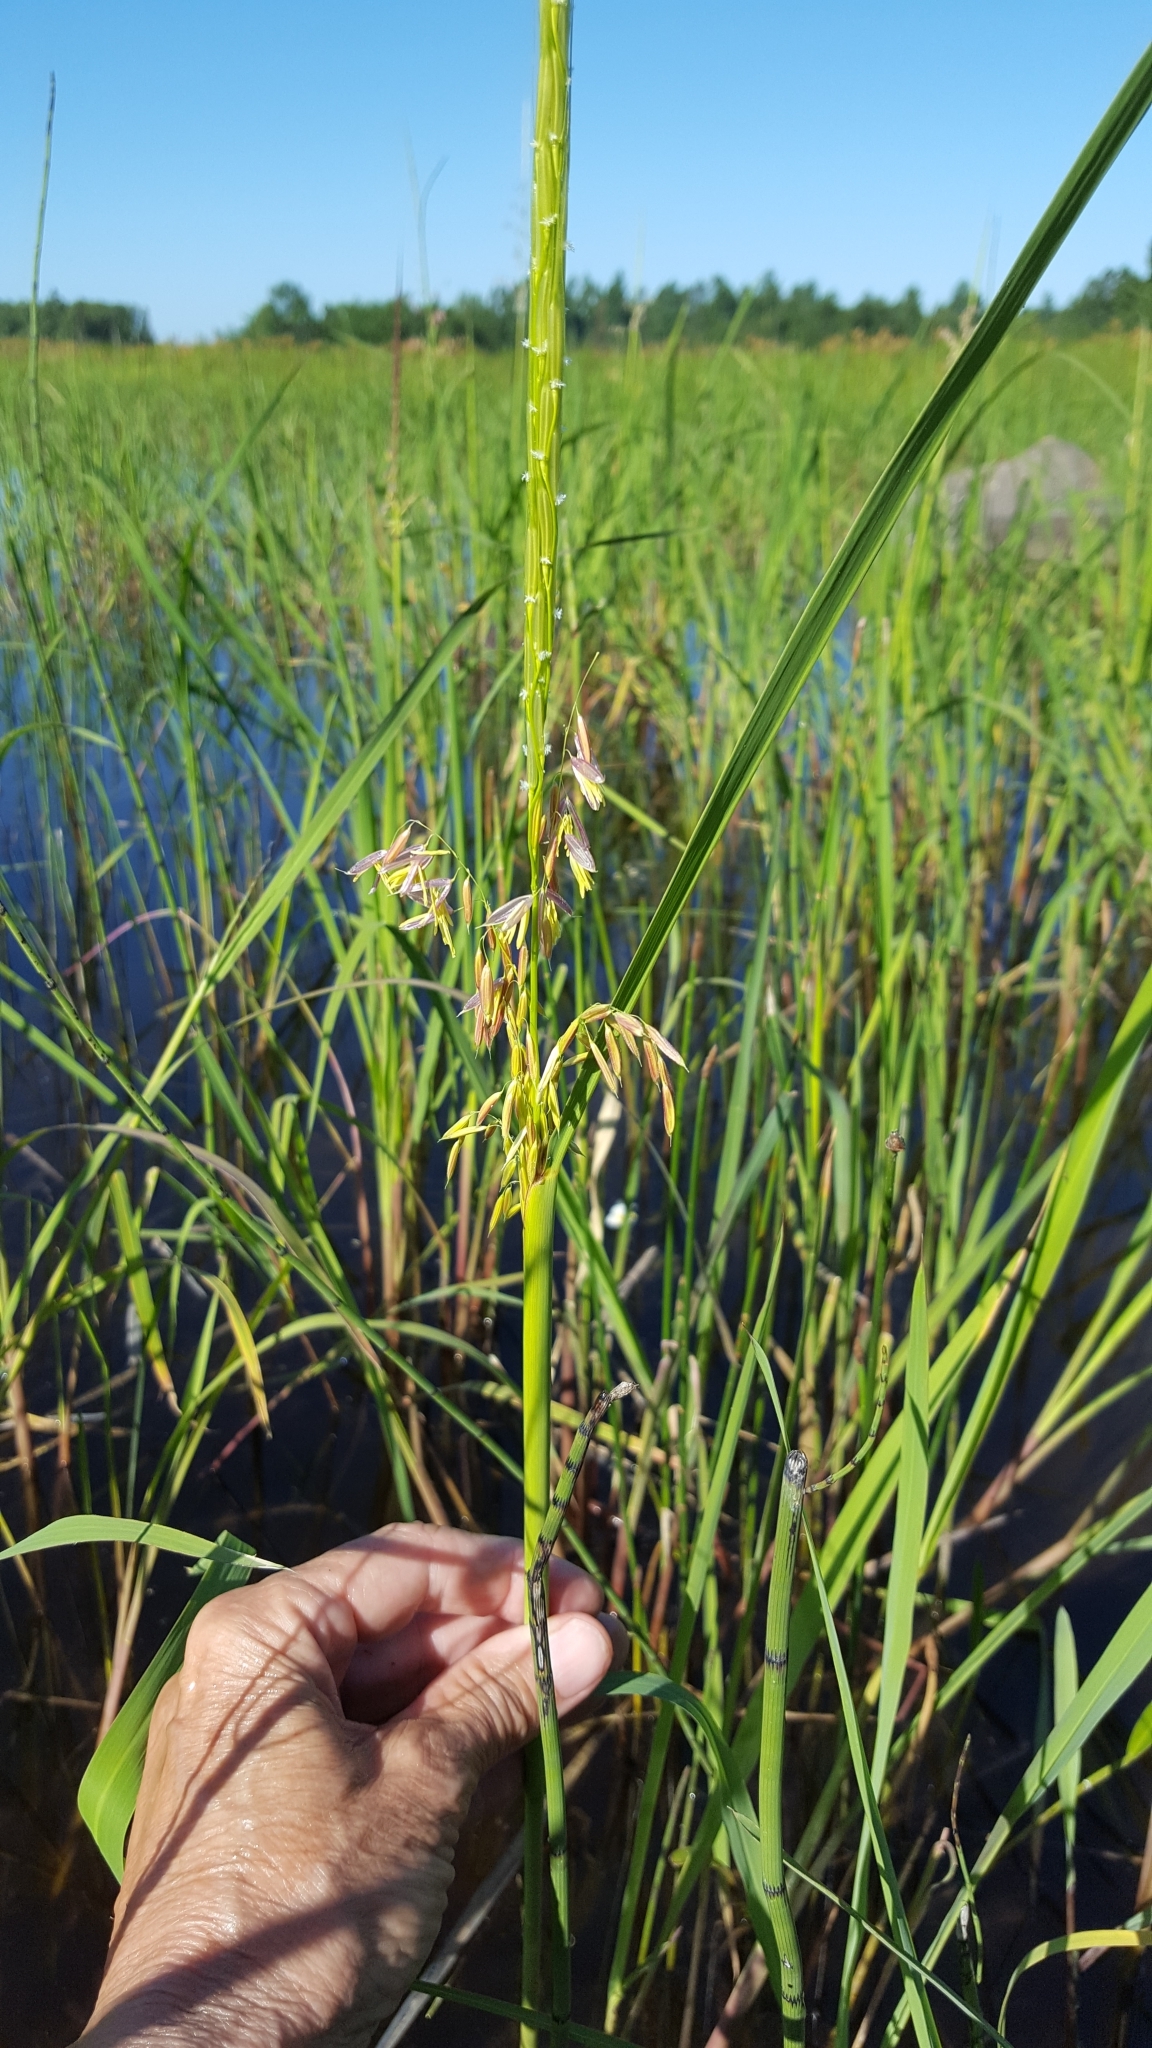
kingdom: Plantae
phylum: Tracheophyta
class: Liliopsida
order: Poales
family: Poaceae
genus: Zizania
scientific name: Zizania palustris
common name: Northern wild rice
